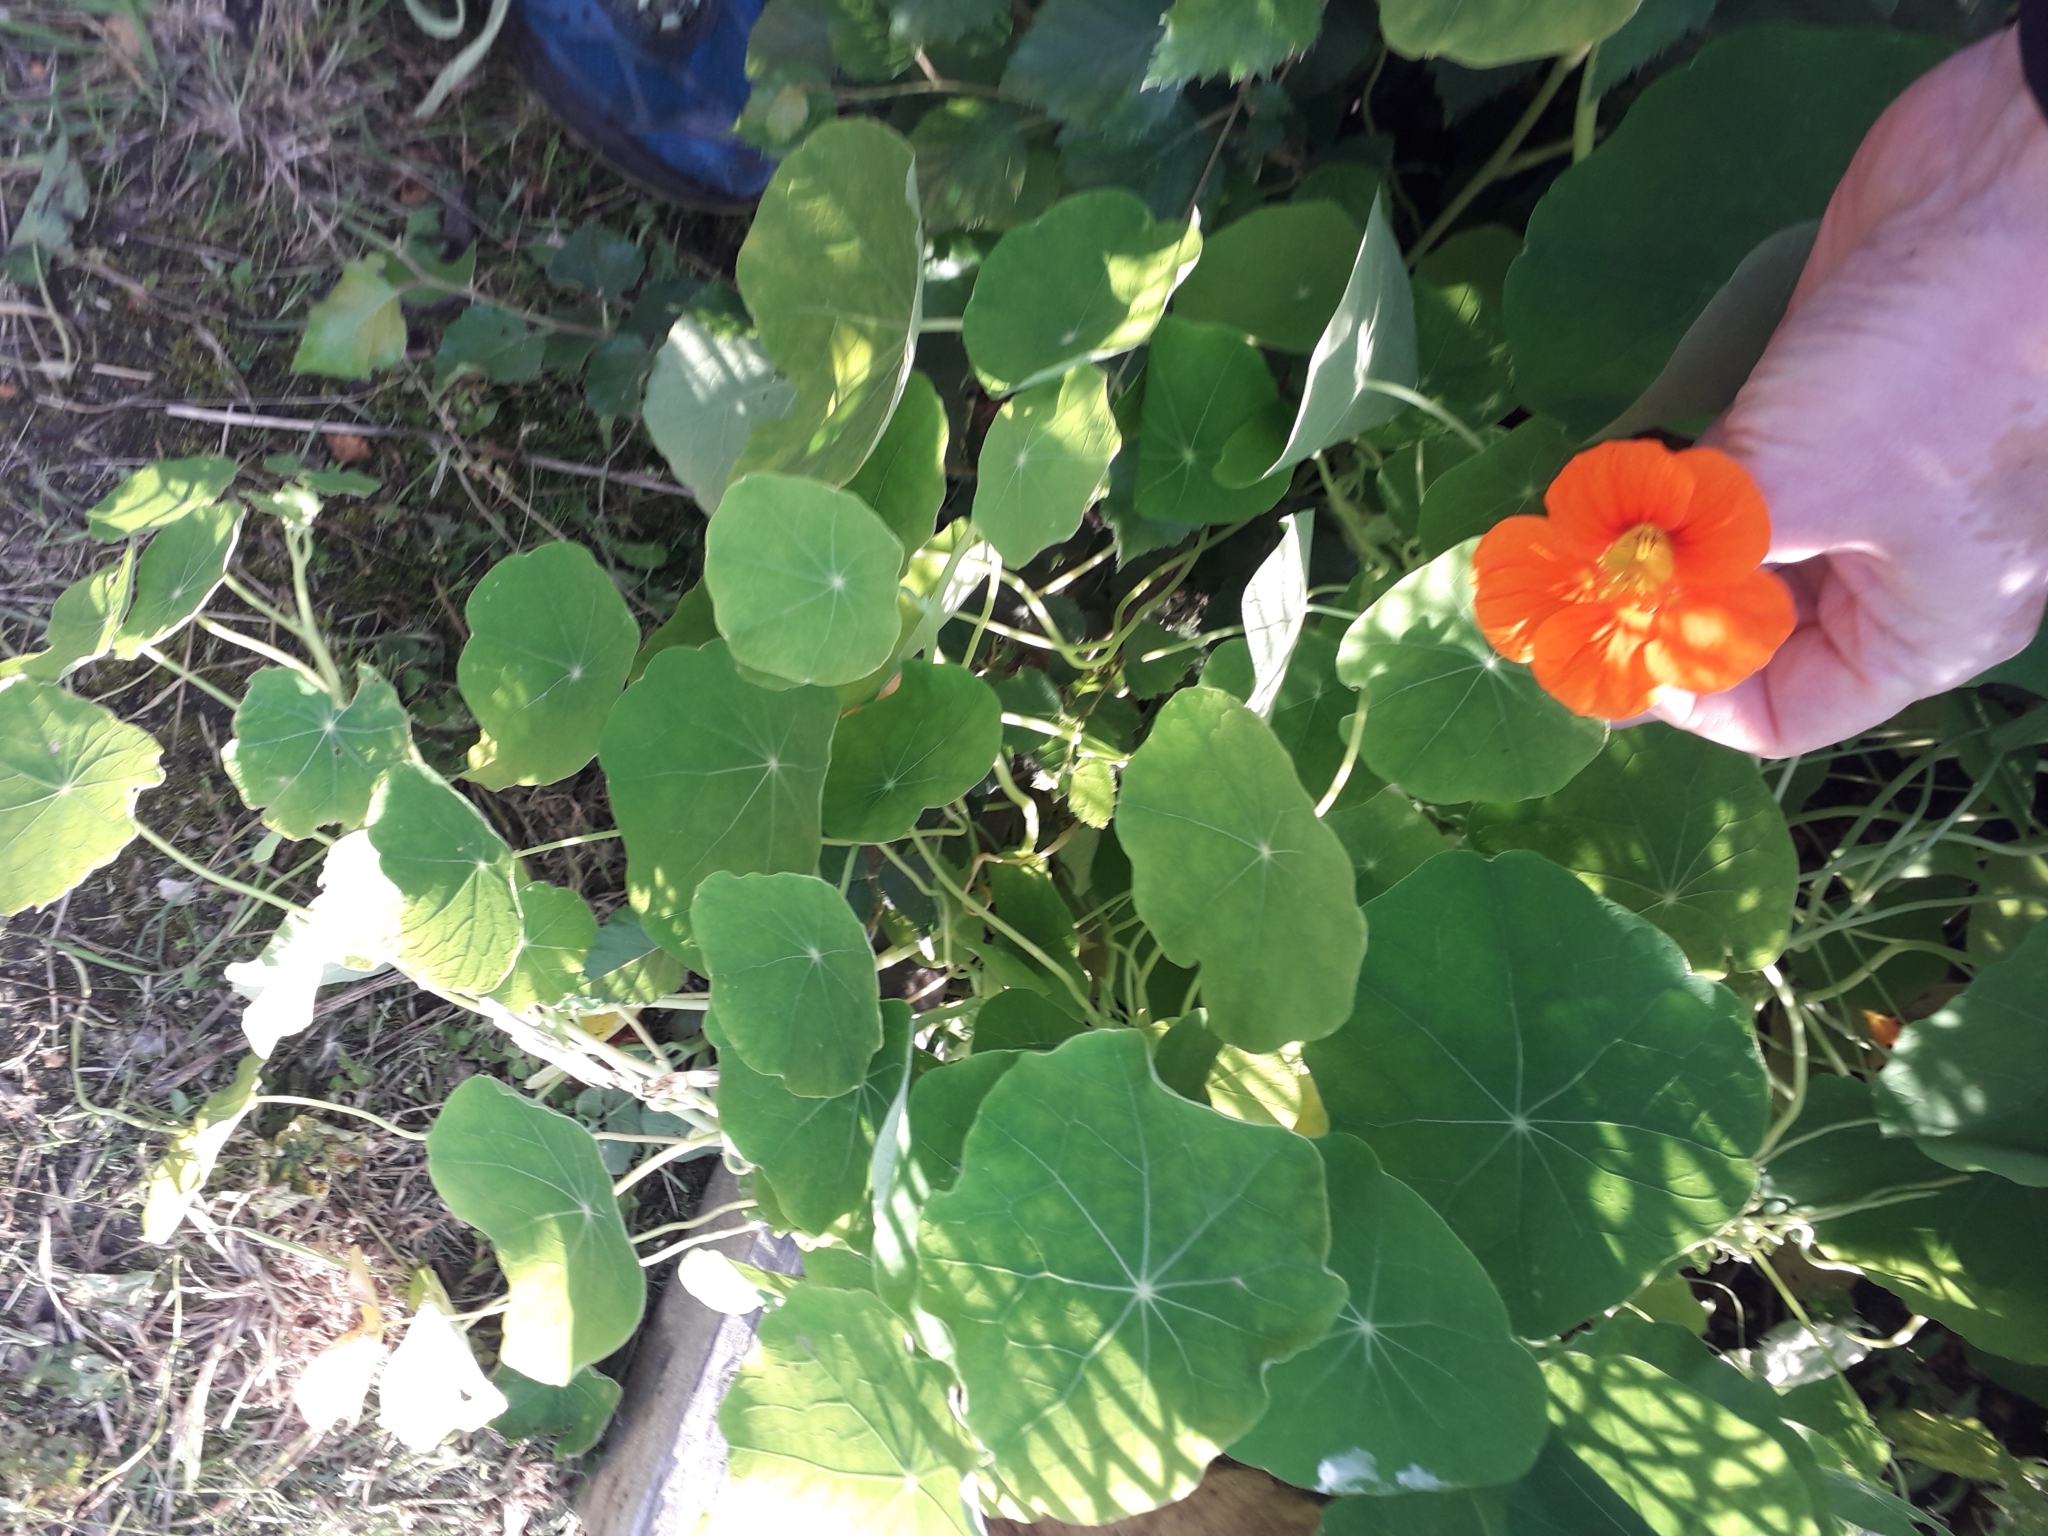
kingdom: Plantae
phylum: Tracheophyta
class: Magnoliopsida
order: Brassicales
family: Tropaeolaceae
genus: Tropaeolum
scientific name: Tropaeolum majus
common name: Nasturtium
